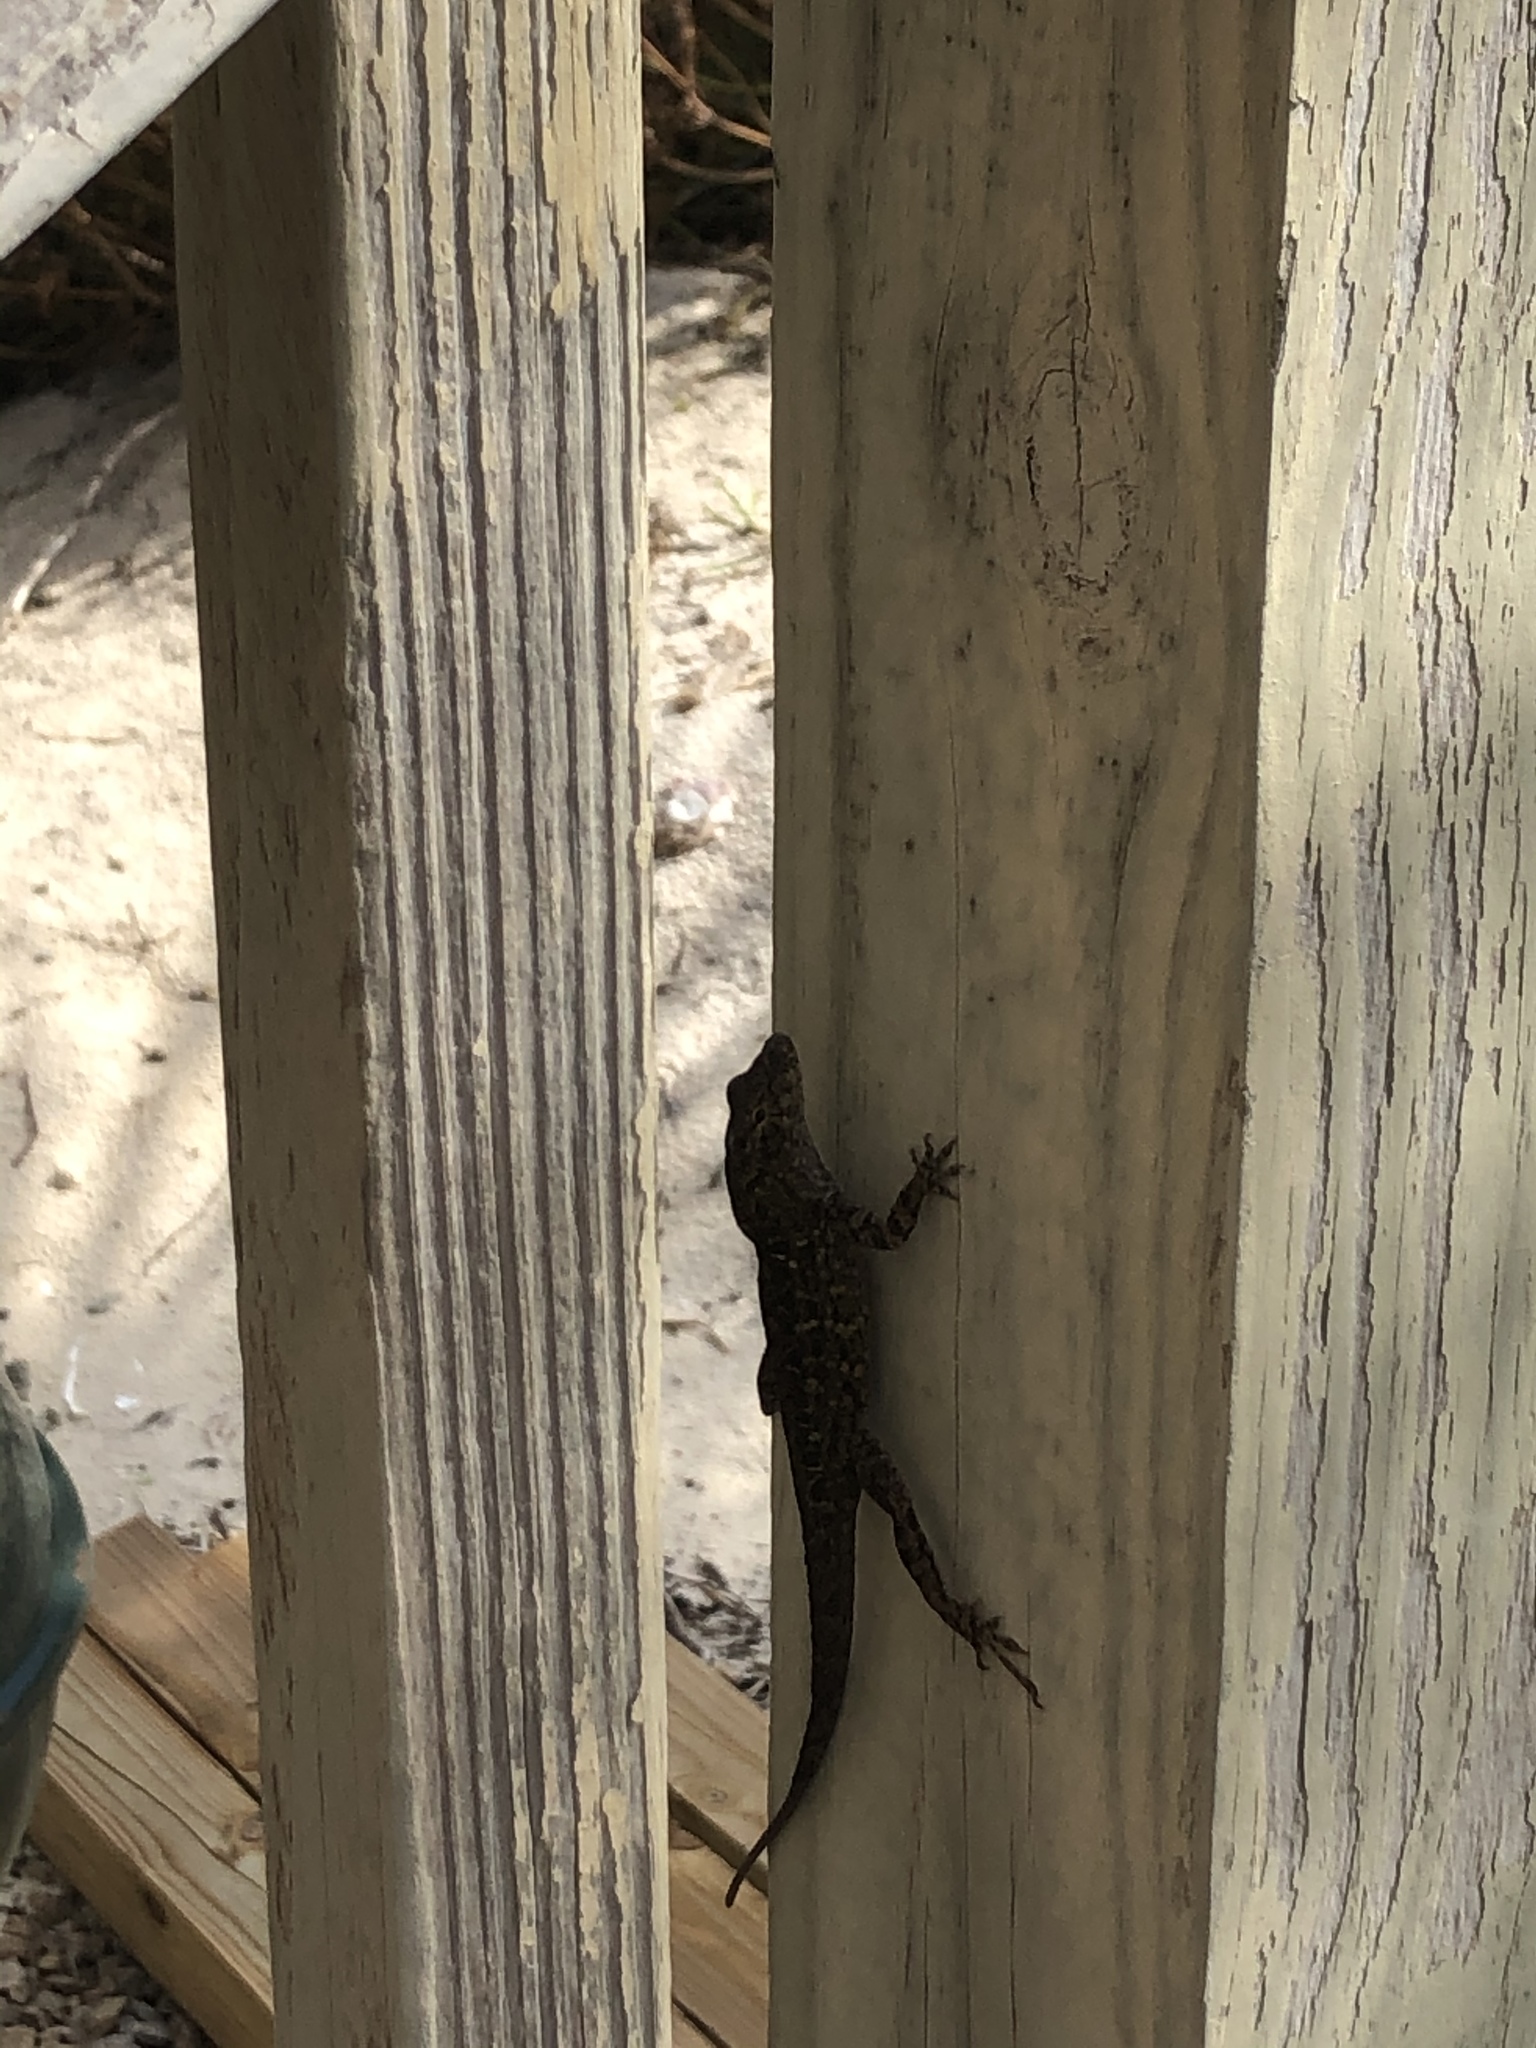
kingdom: Animalia
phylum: Chordata
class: Squamata
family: Dactyloidae
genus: Anolis
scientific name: Anolis sagrei
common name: Brown anole
